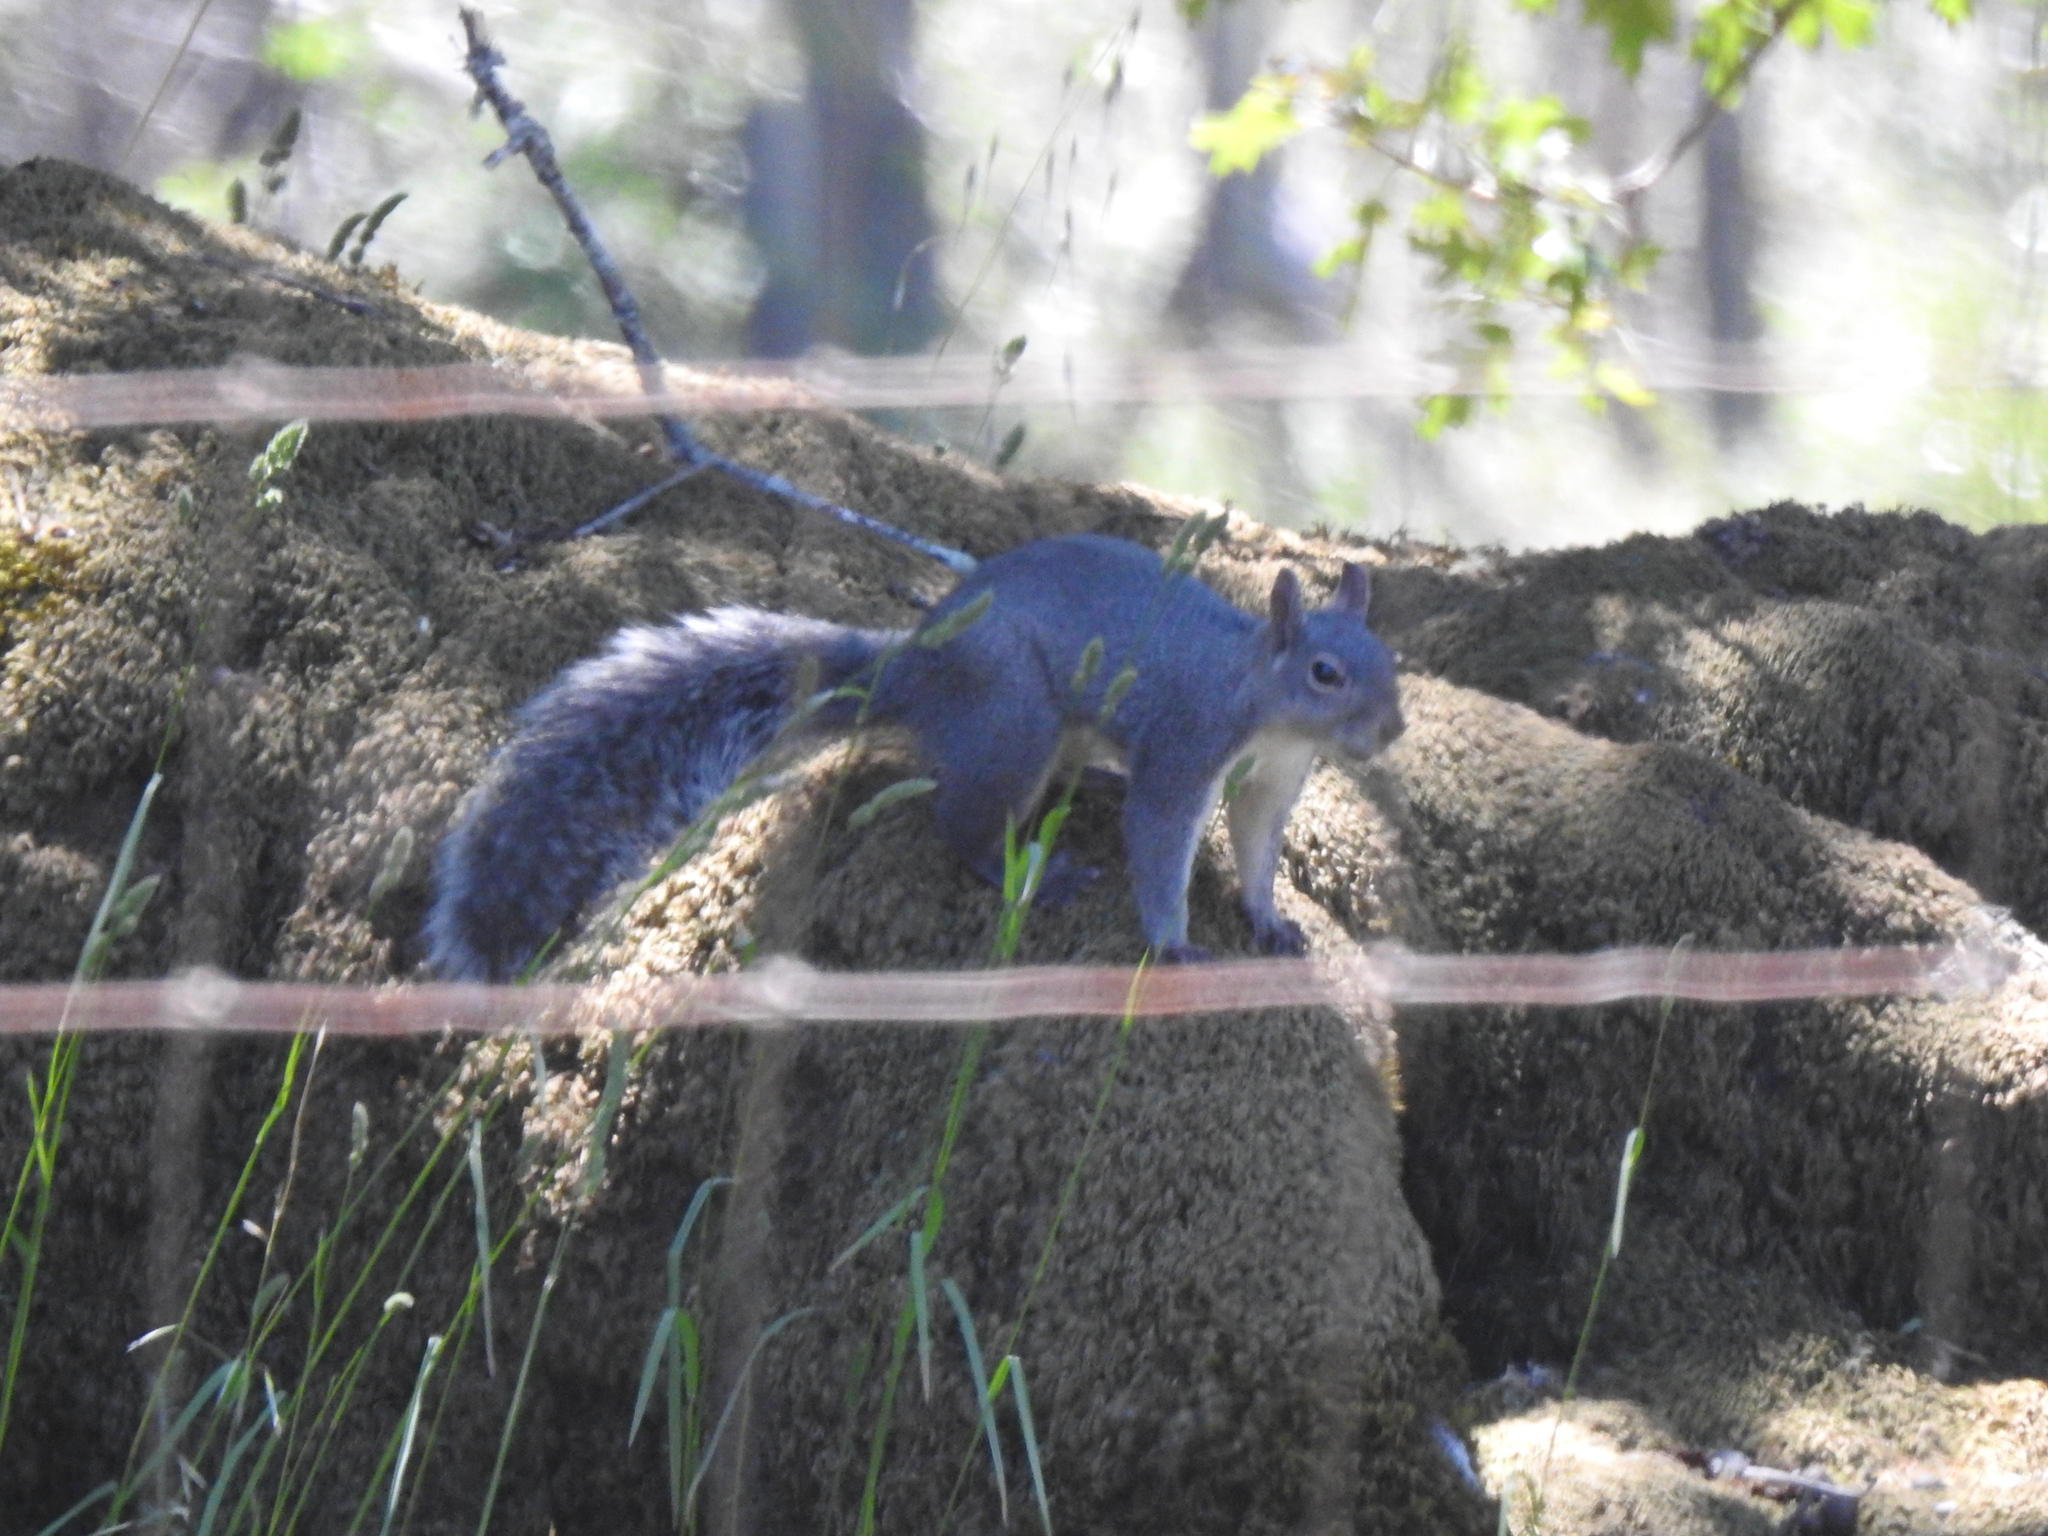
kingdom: Animalia
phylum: Chordata
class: Mammalia
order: Rodentia
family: Sciuridae
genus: Sciurus
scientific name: Sciurus griseus
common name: Western gray squirrel
